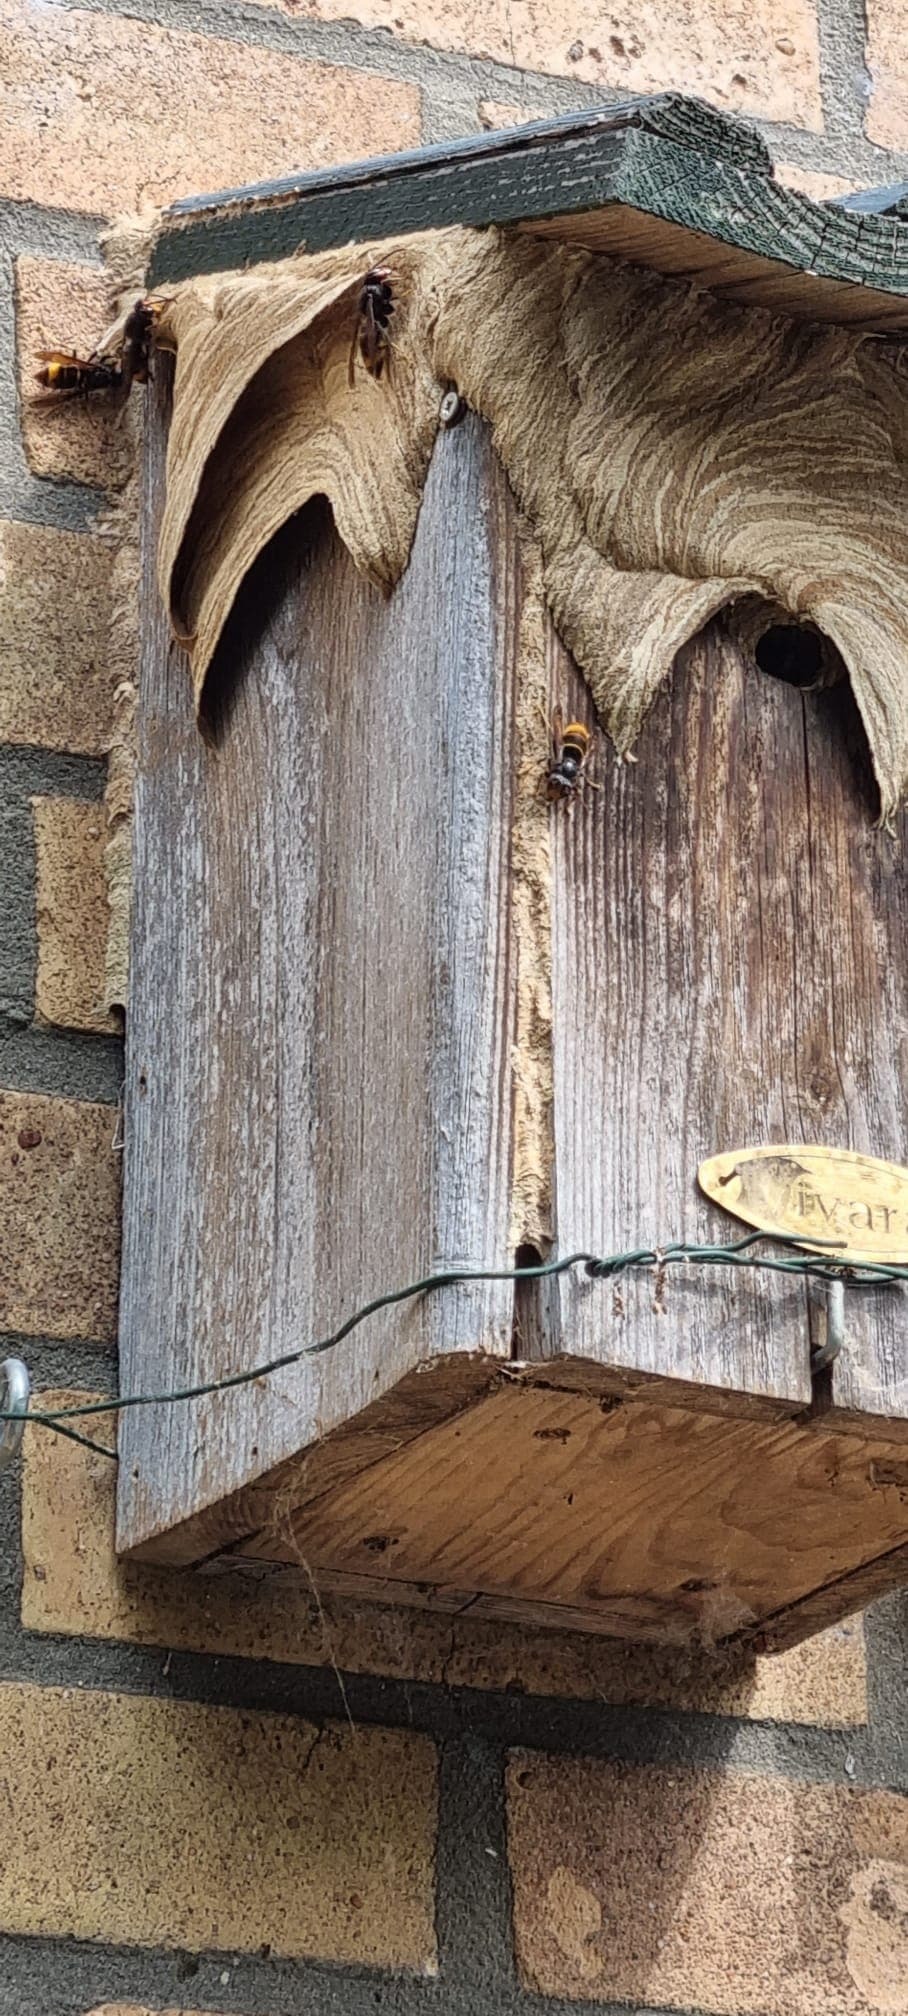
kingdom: Animalia
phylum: Arthropoda
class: Insecta
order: Hymenoptera
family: Vespidae
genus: Vespa
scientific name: Vespa velutina
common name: Asian hornet
